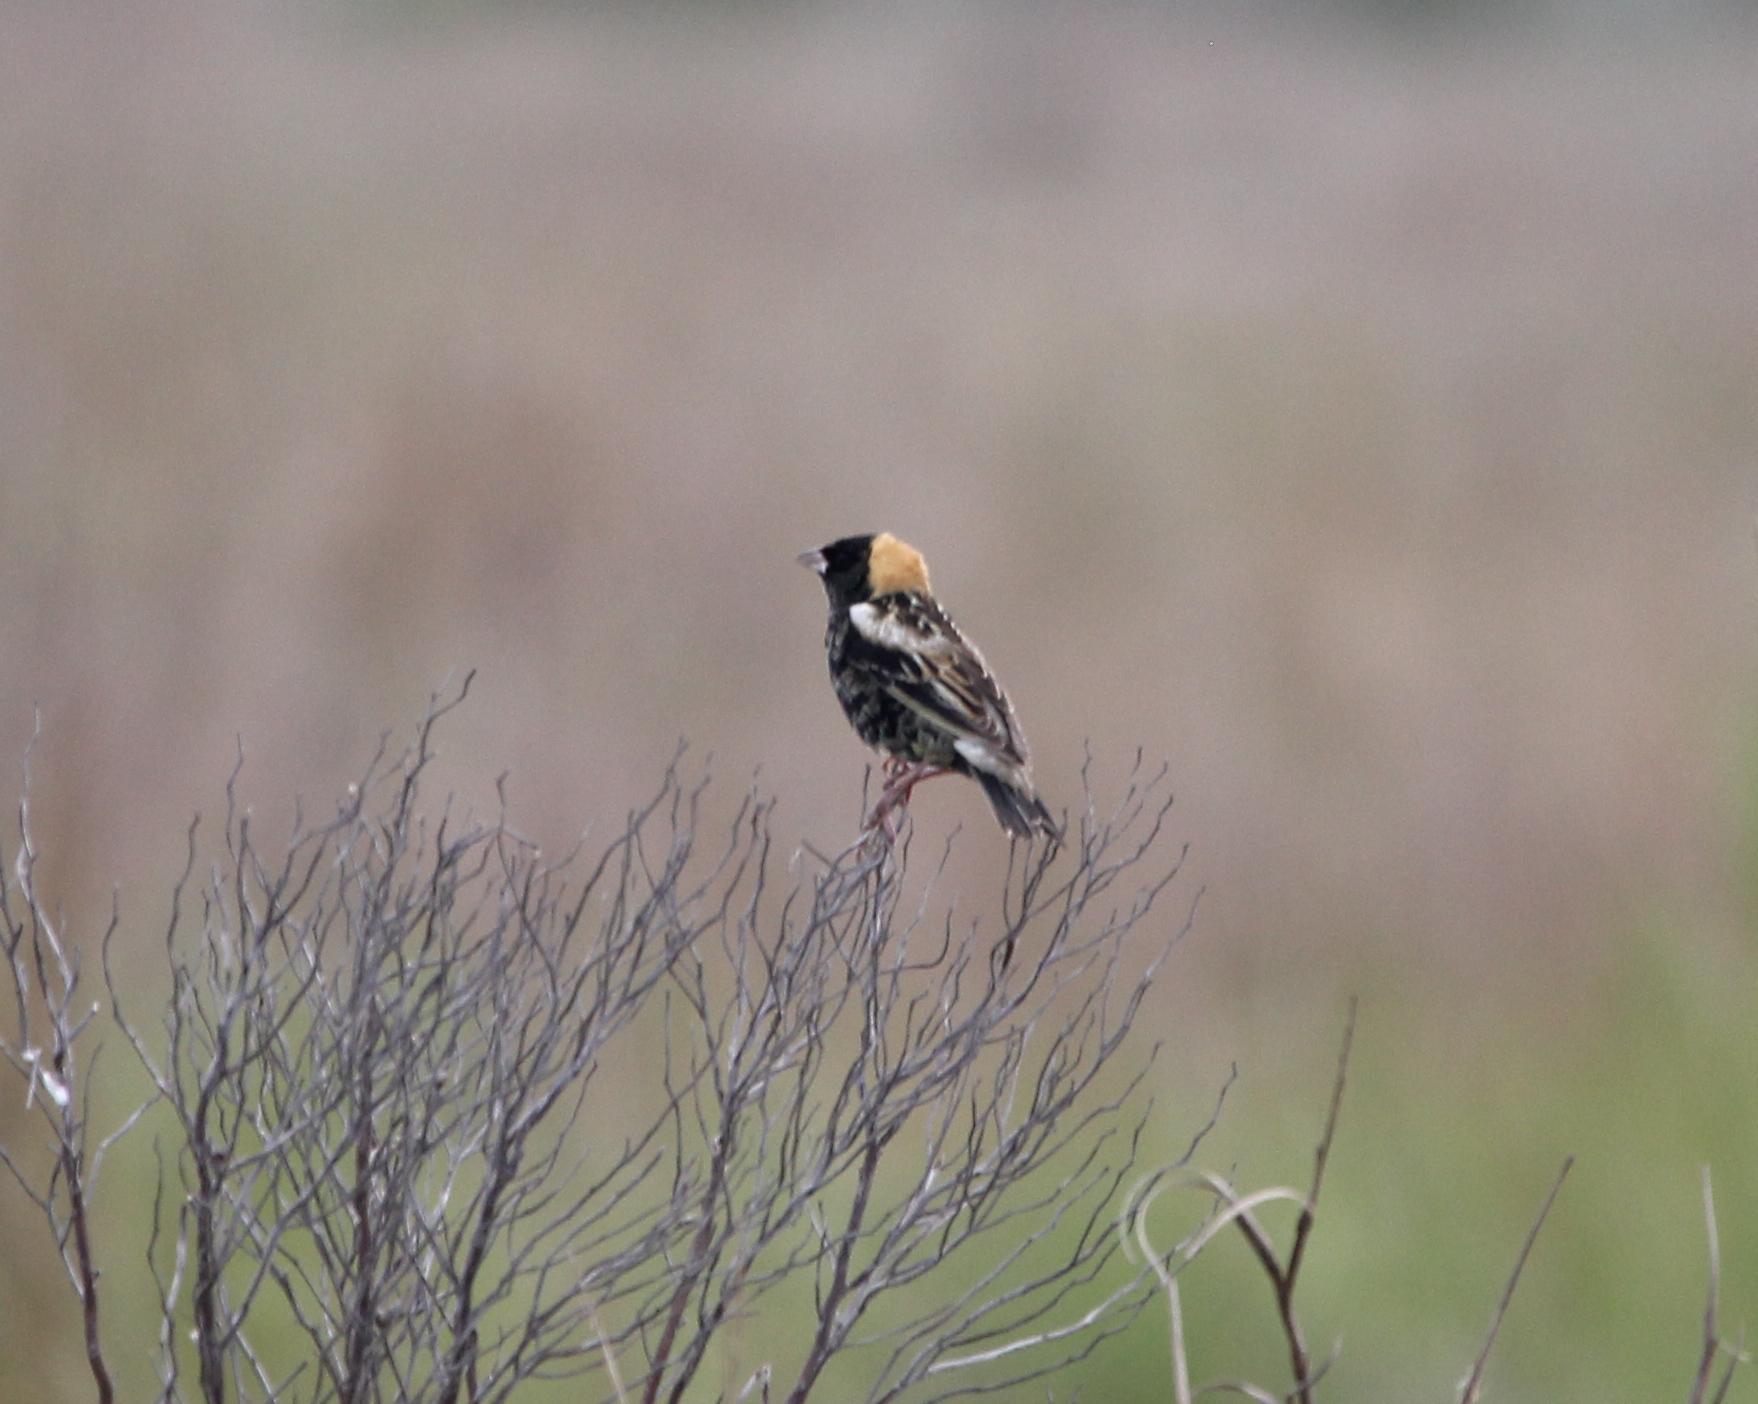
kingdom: Animalia
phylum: Chordata
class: Aves
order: Passeriformes
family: Icteridae
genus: Dolichonyx
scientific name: Dolichonyx oryzivorus
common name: Bobolink
